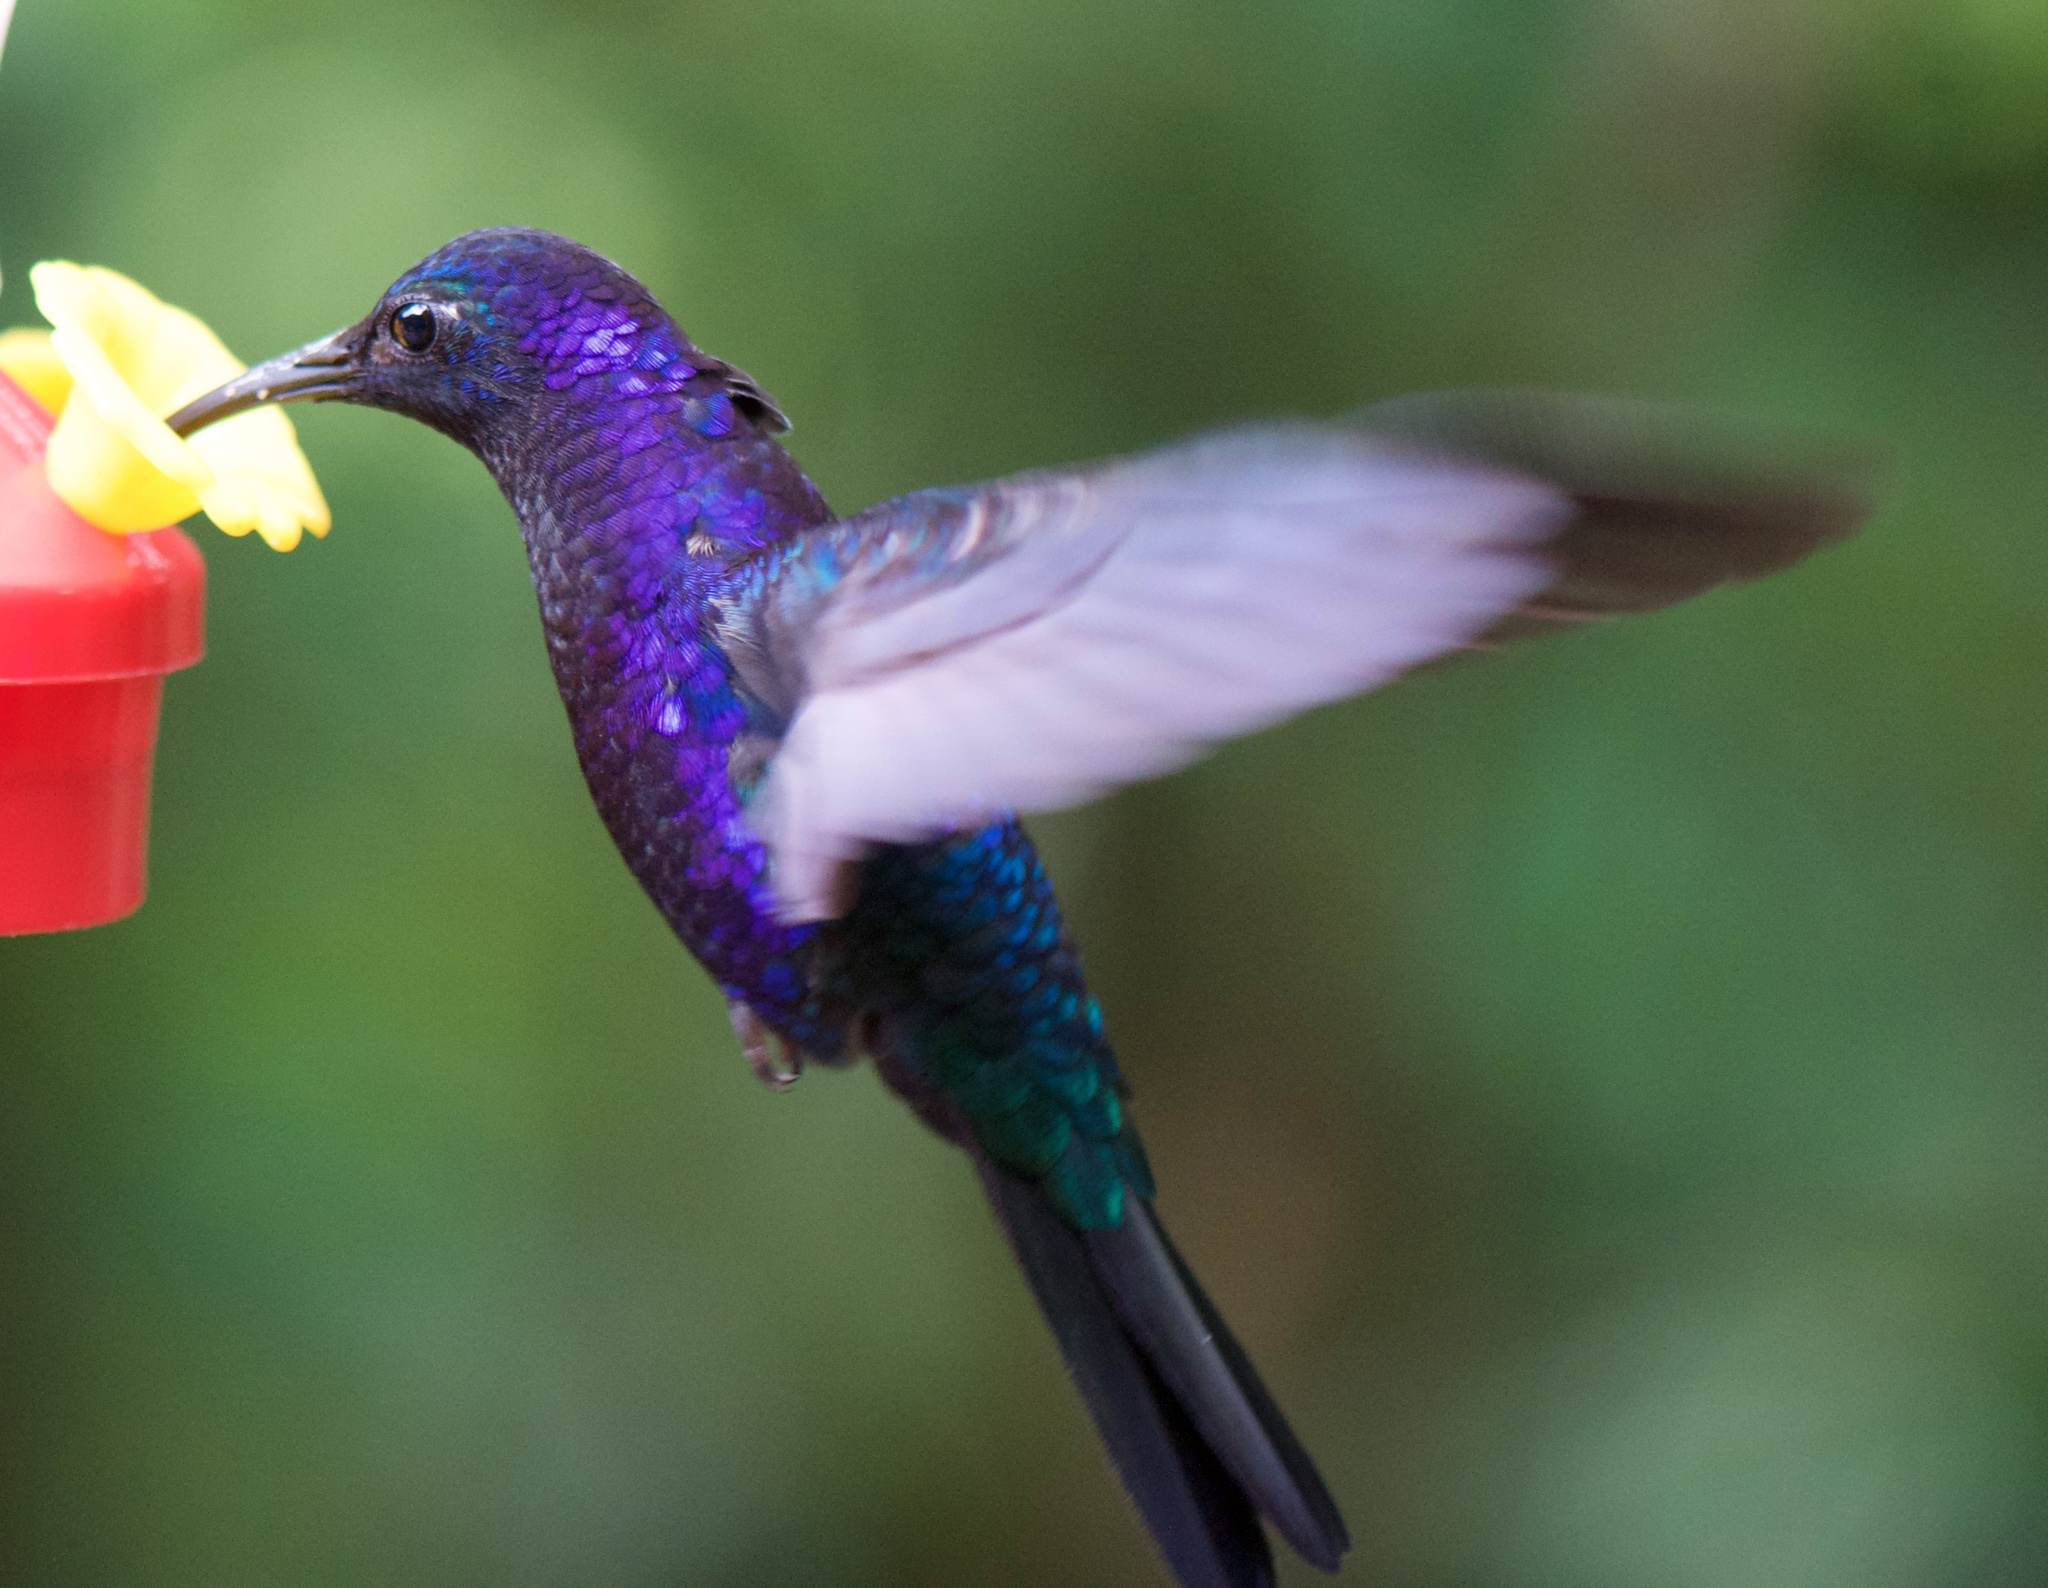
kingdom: Animalia
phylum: Chordata
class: Aves
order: Apodiformes
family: Trochilidae
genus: Campylopterus
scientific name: Campylopterus hemileucurus
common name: Violet sabrewing
